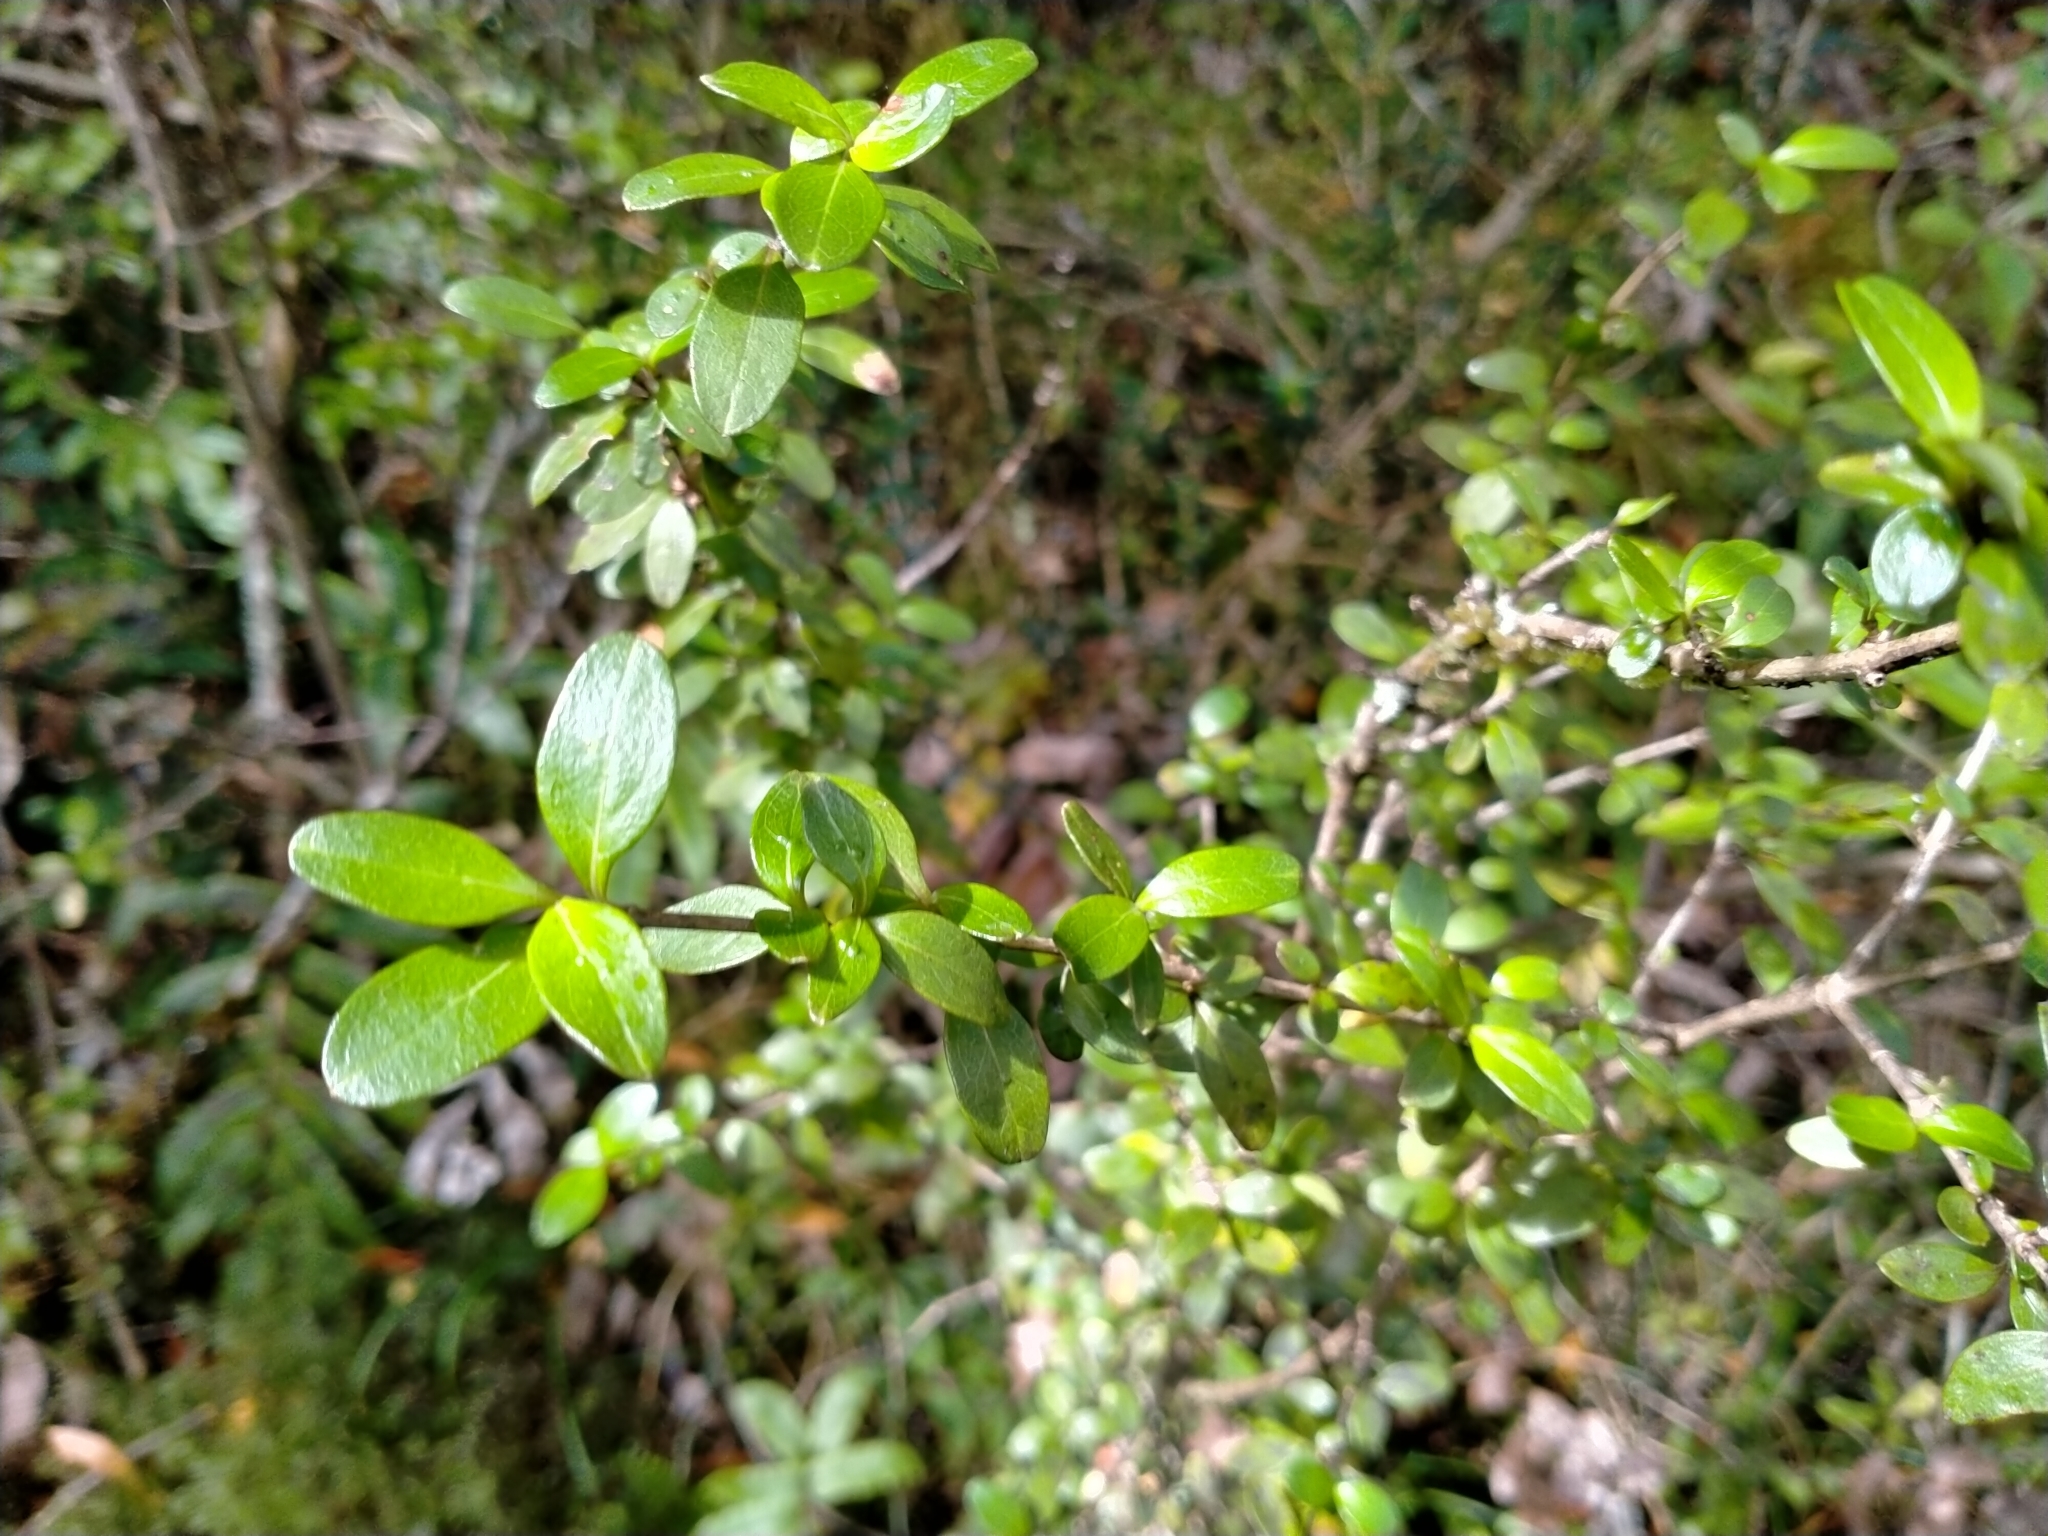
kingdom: Plantae
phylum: Tracheophyta
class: Magnoliopsida
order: Gentianales
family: Rubiaceae
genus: Coprosma
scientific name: Coprosma colensoi
